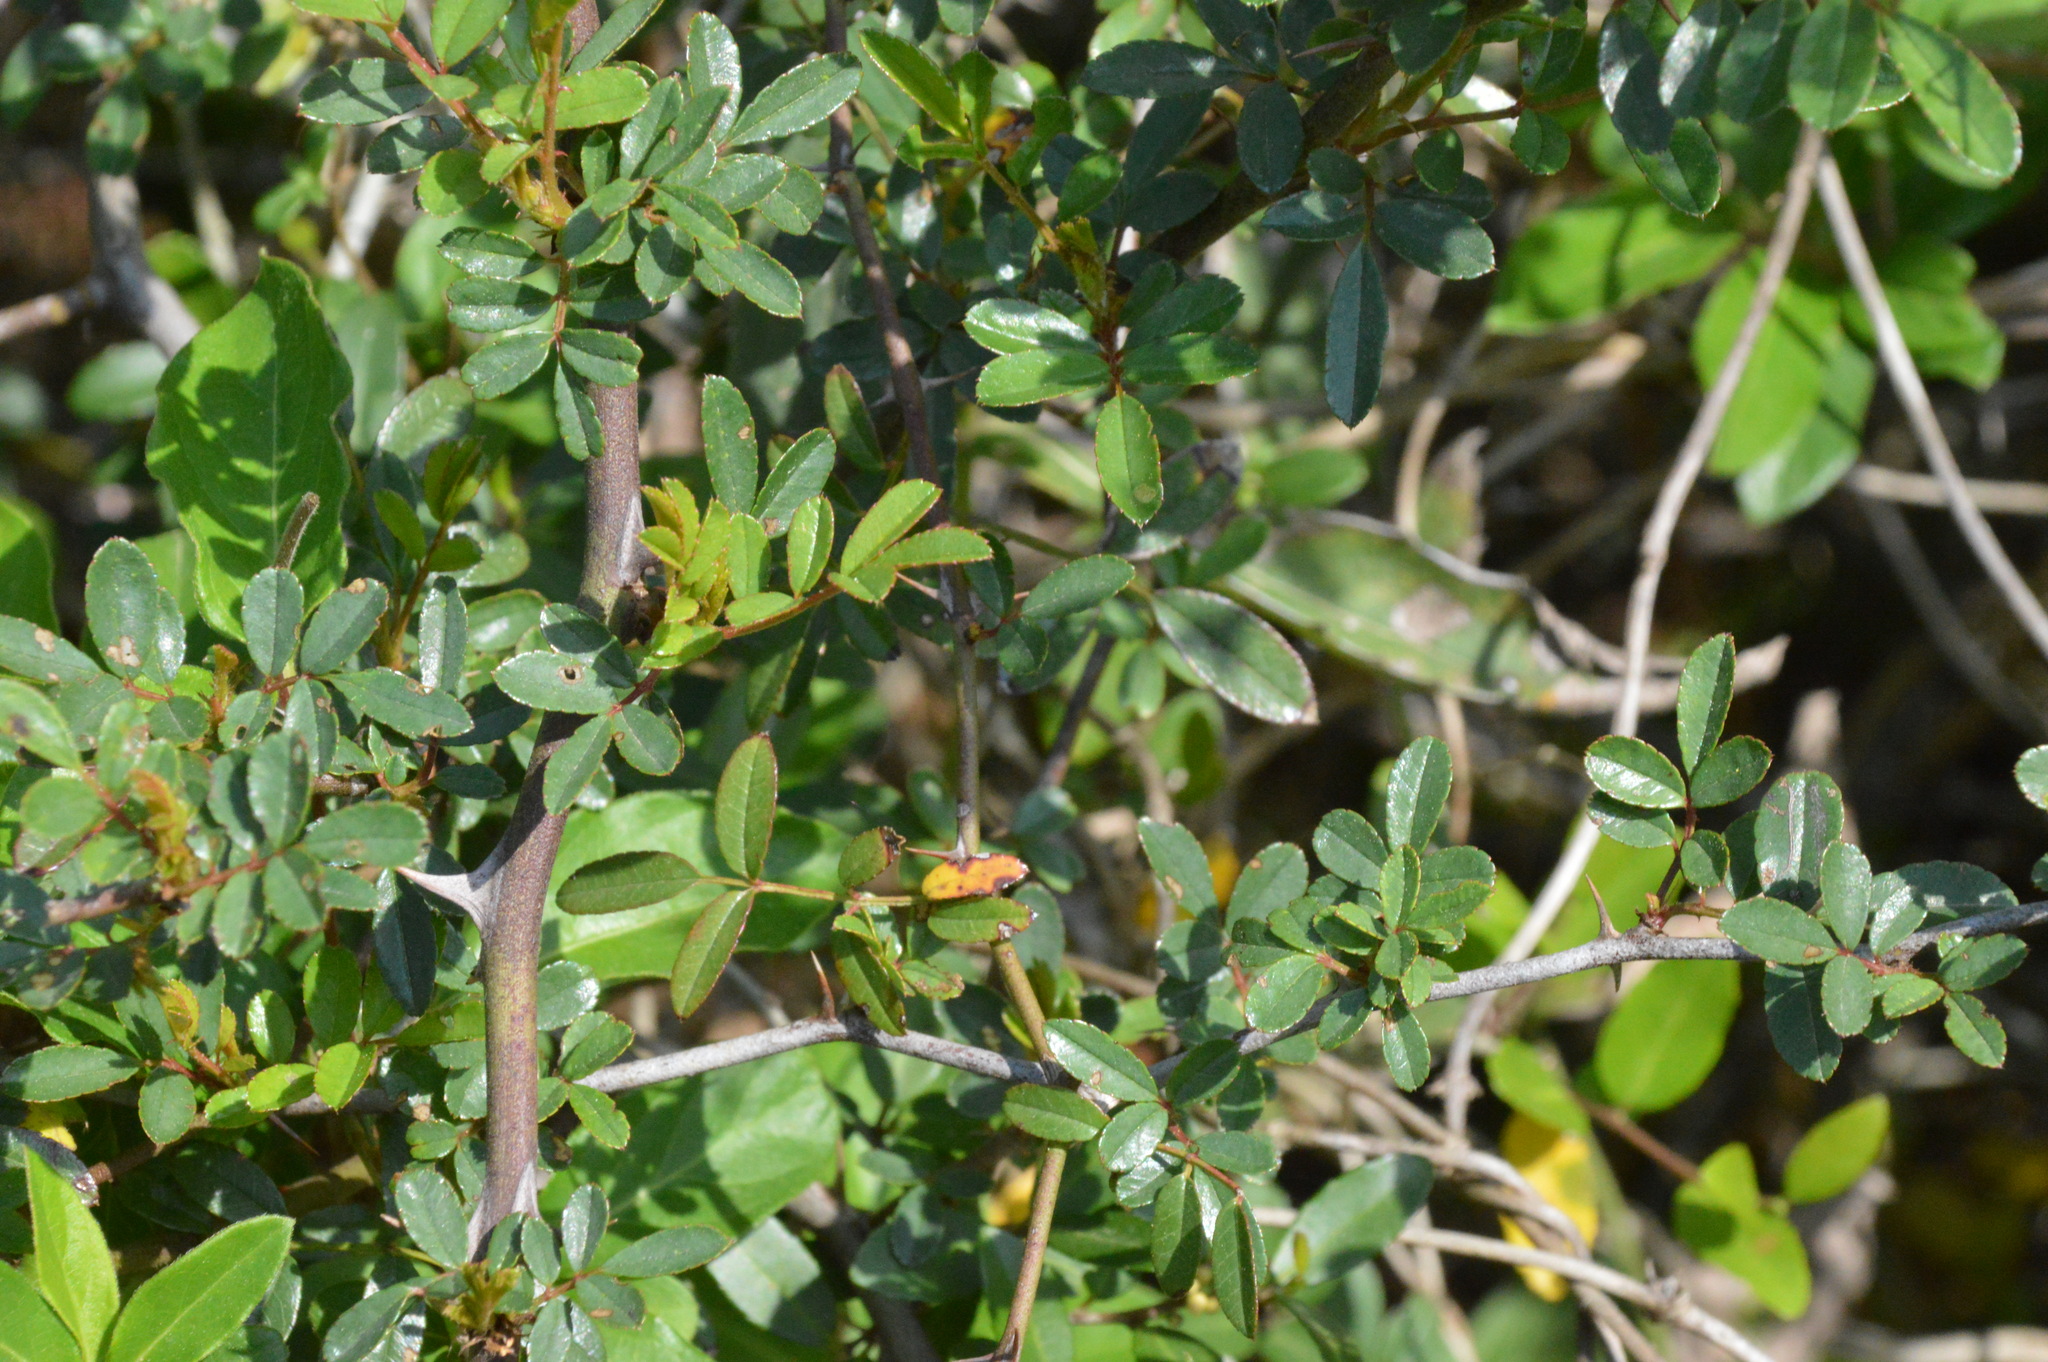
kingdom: Plantae
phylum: Tracheophyta
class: Magnoliopsida
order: Rosales
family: Rosaceae
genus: Rosa
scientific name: Rosa bracteata
